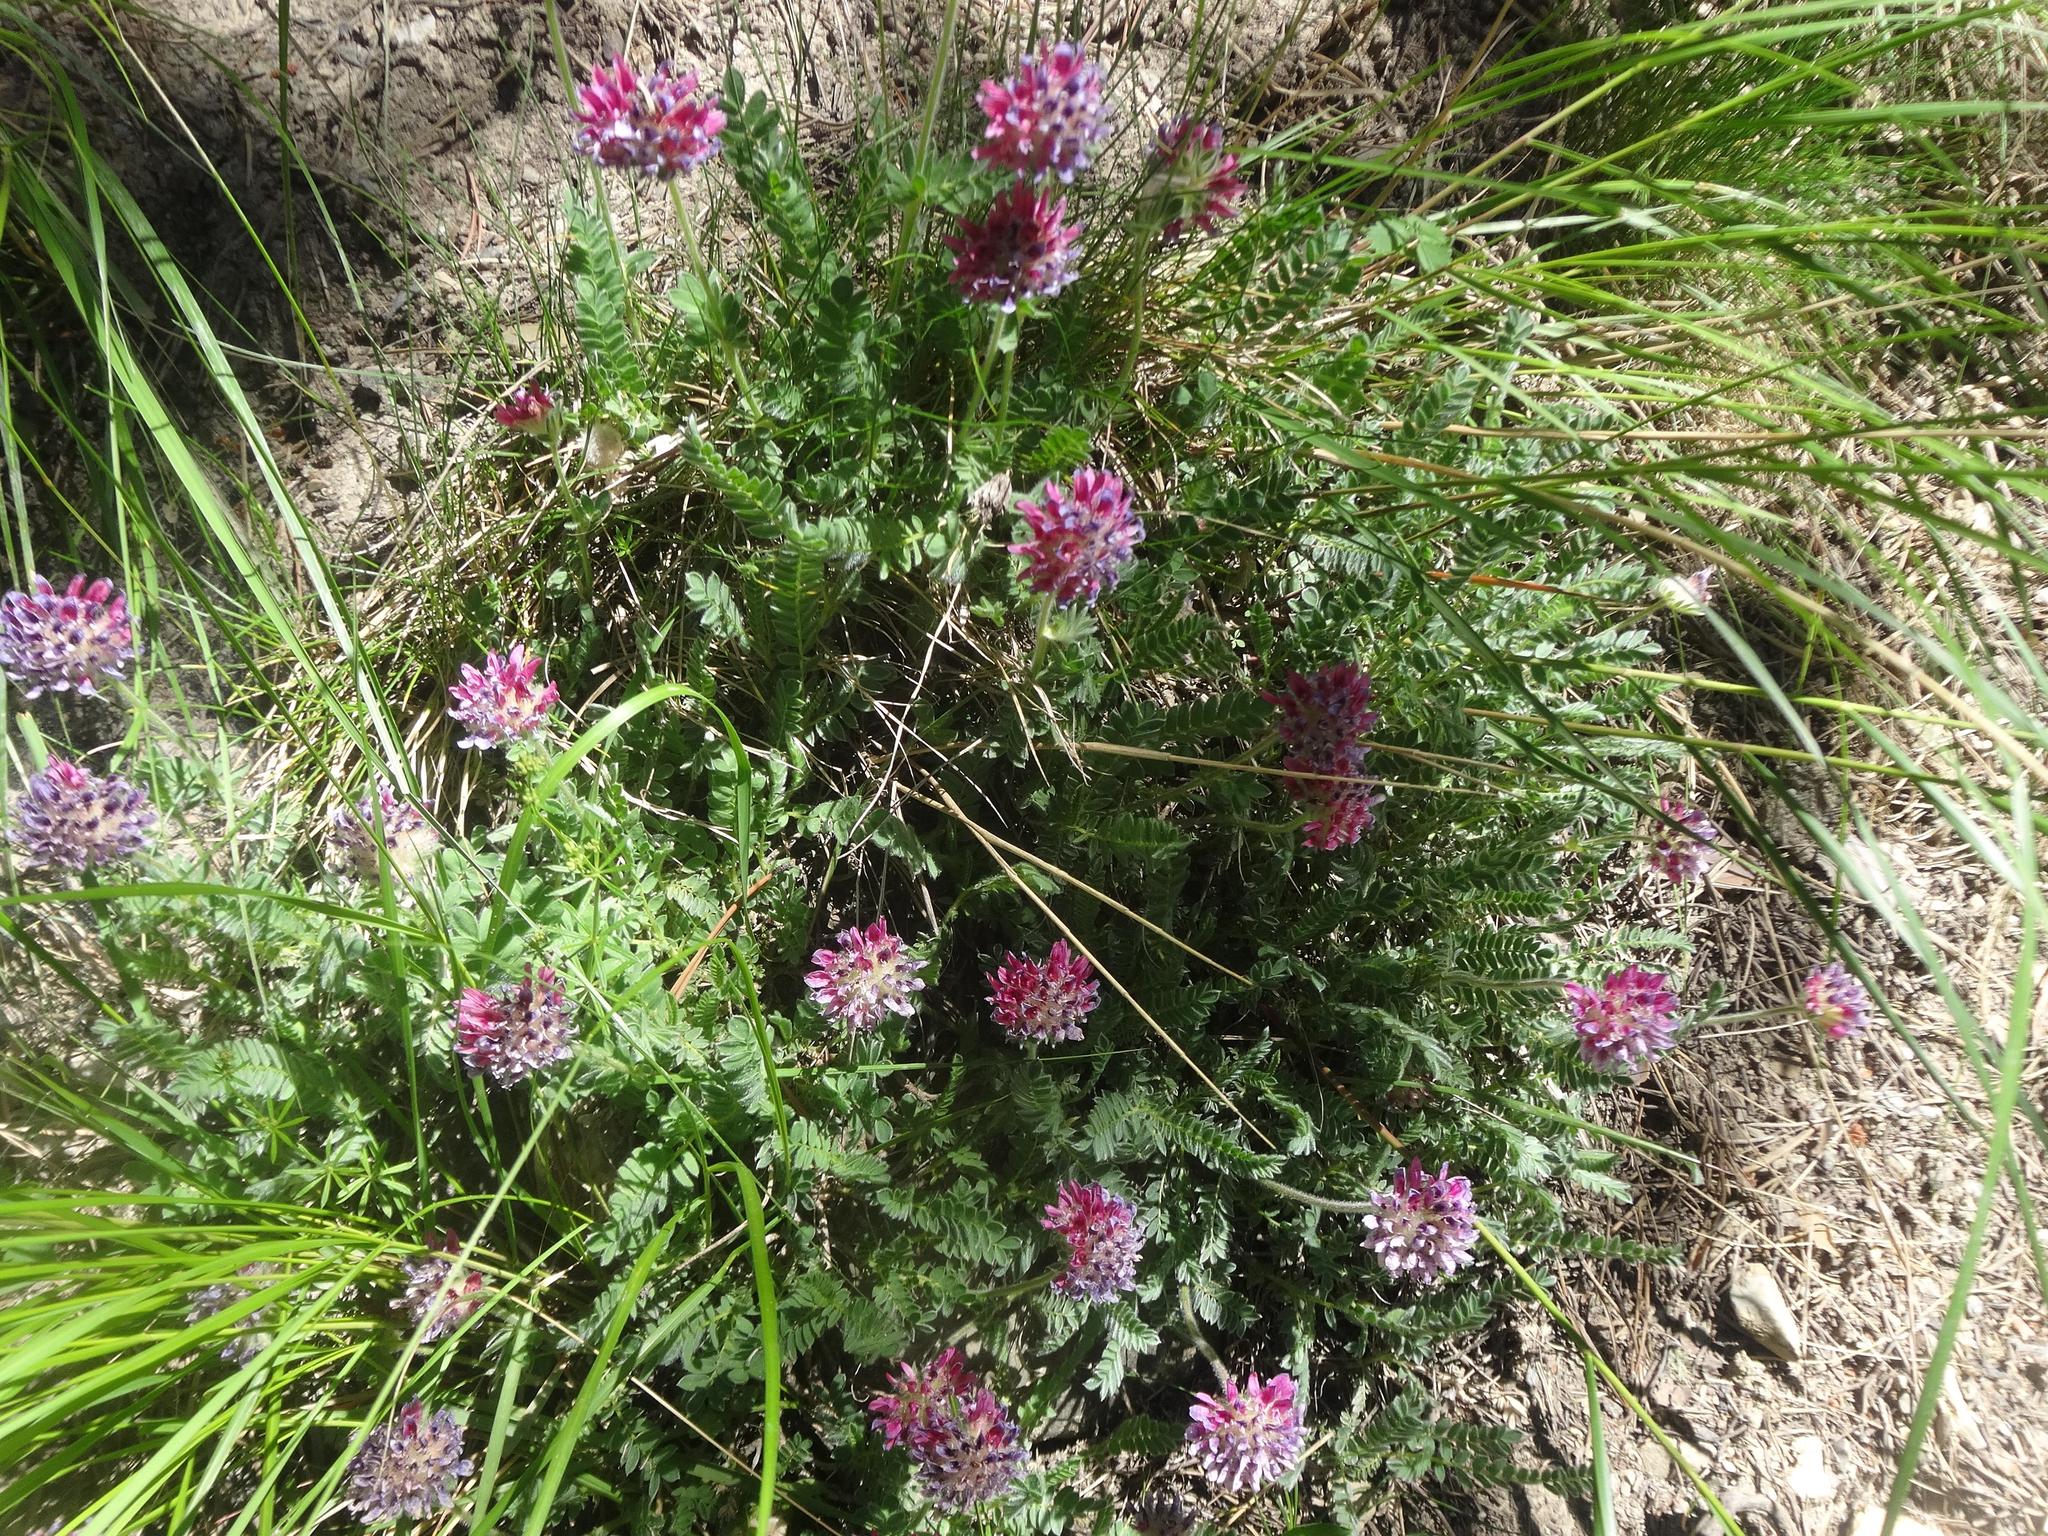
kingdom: Plantae
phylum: Tracheophyta
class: Magnoliopsida
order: Fabales
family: Fabaceae
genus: Anthyllis
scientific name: Anthyllis montana
